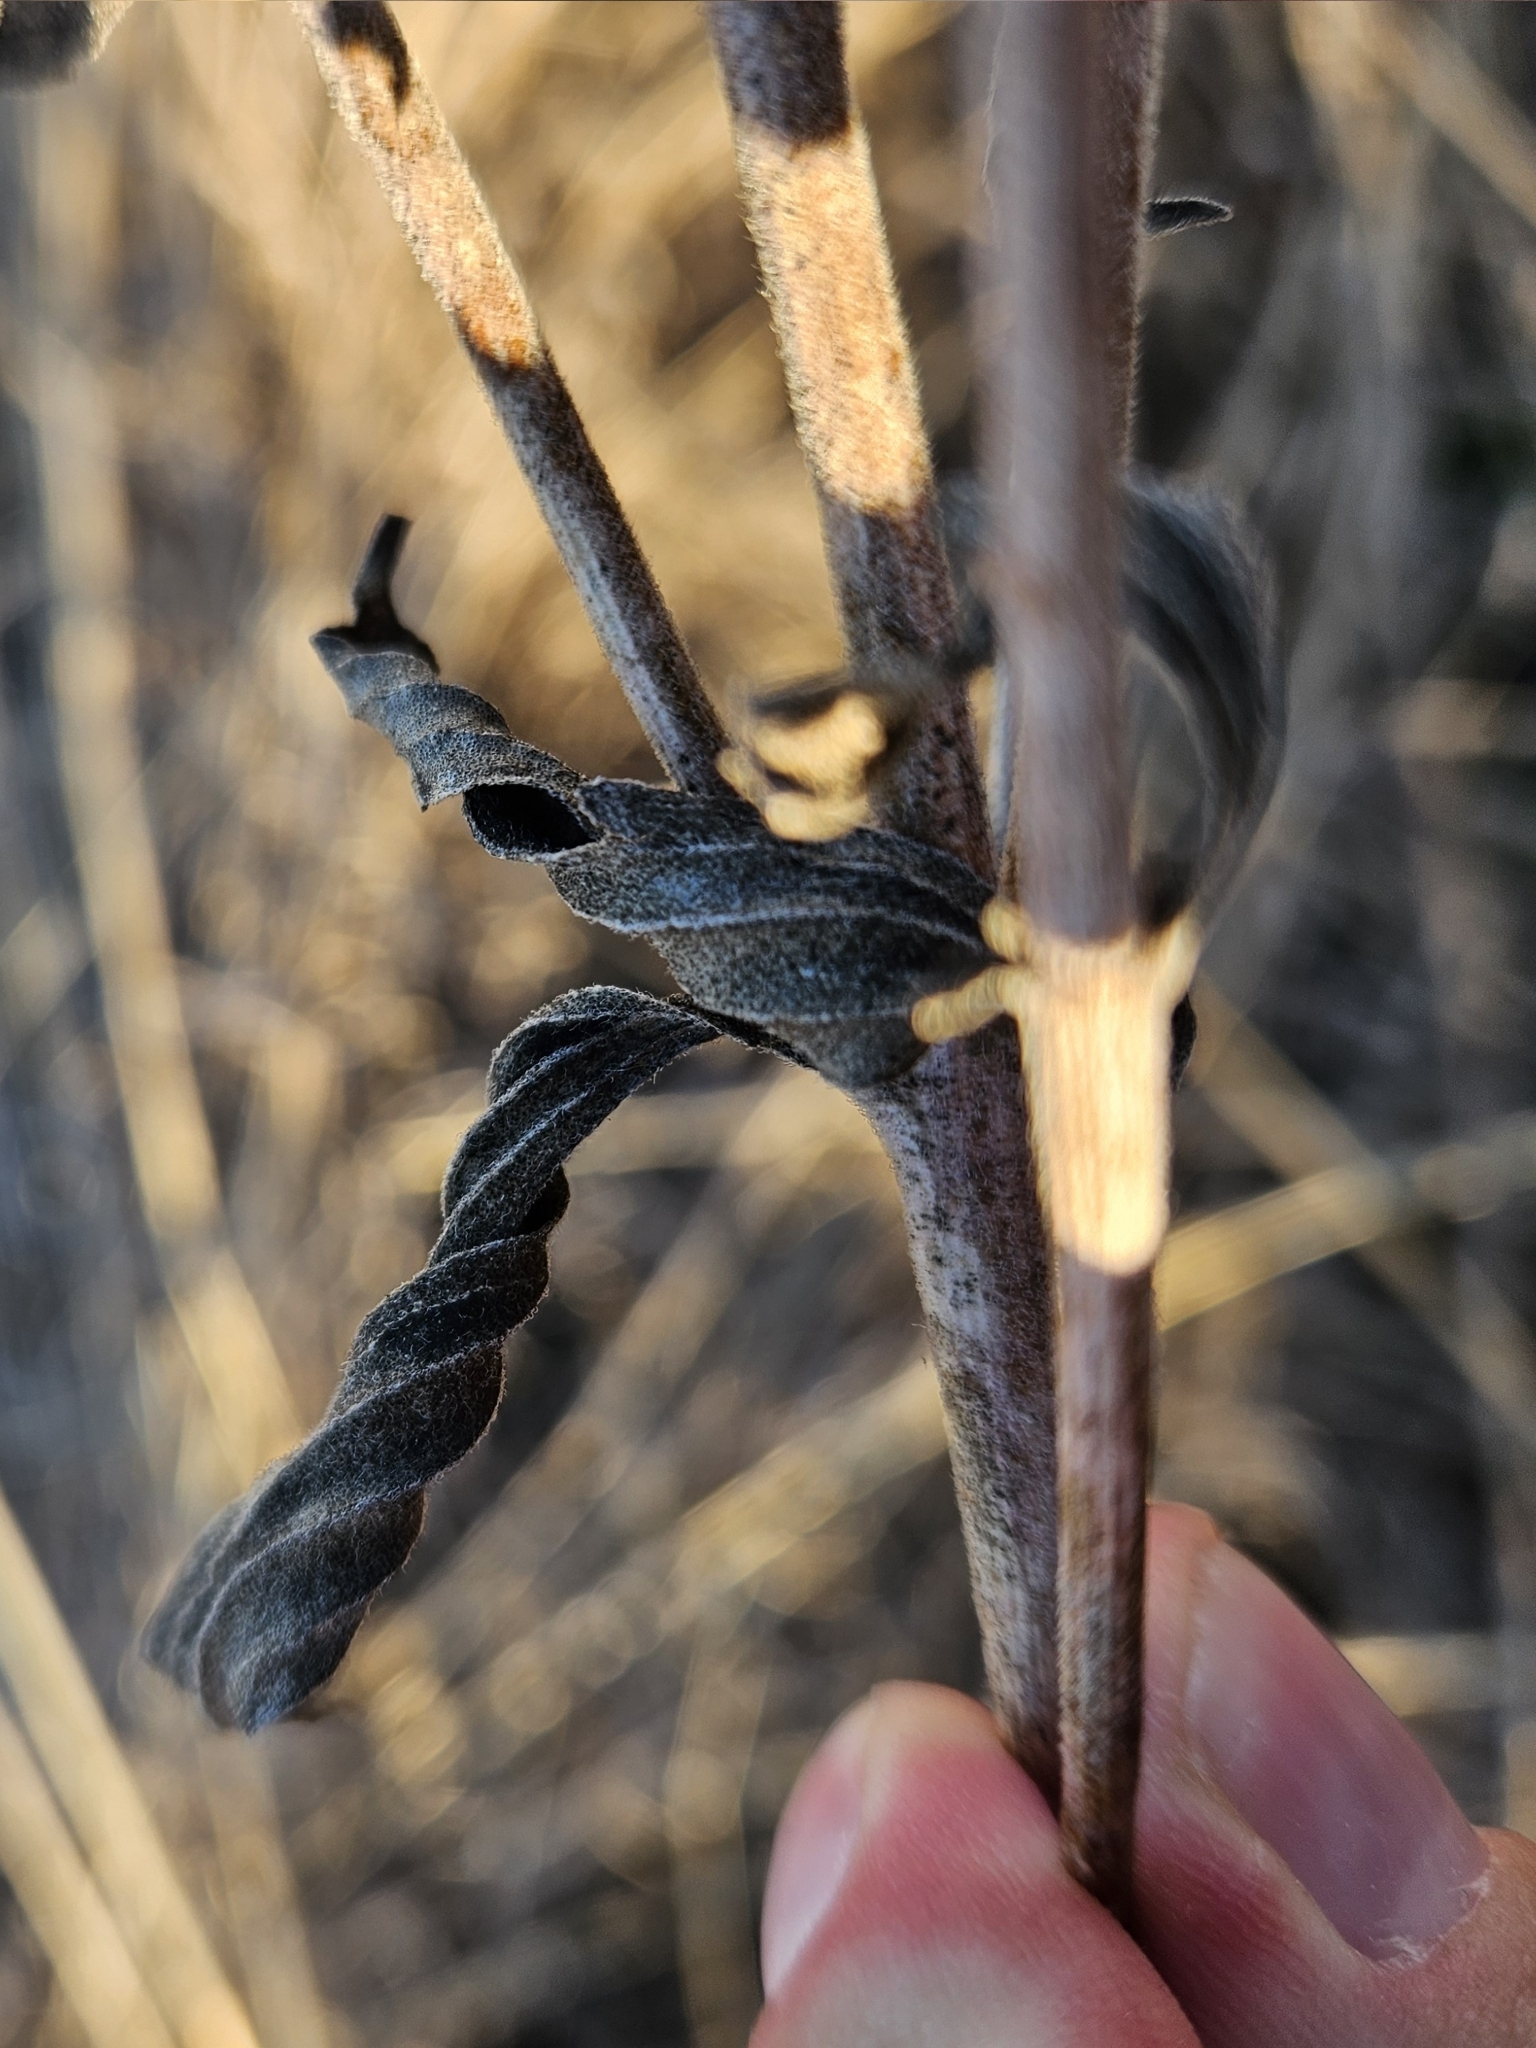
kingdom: Plantae
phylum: Tracheophyta
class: Magnoliopsida
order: Asterales
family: Asteraceae
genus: Eupatorium
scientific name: Eupatorium altissimum
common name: Tall thoroughwort
